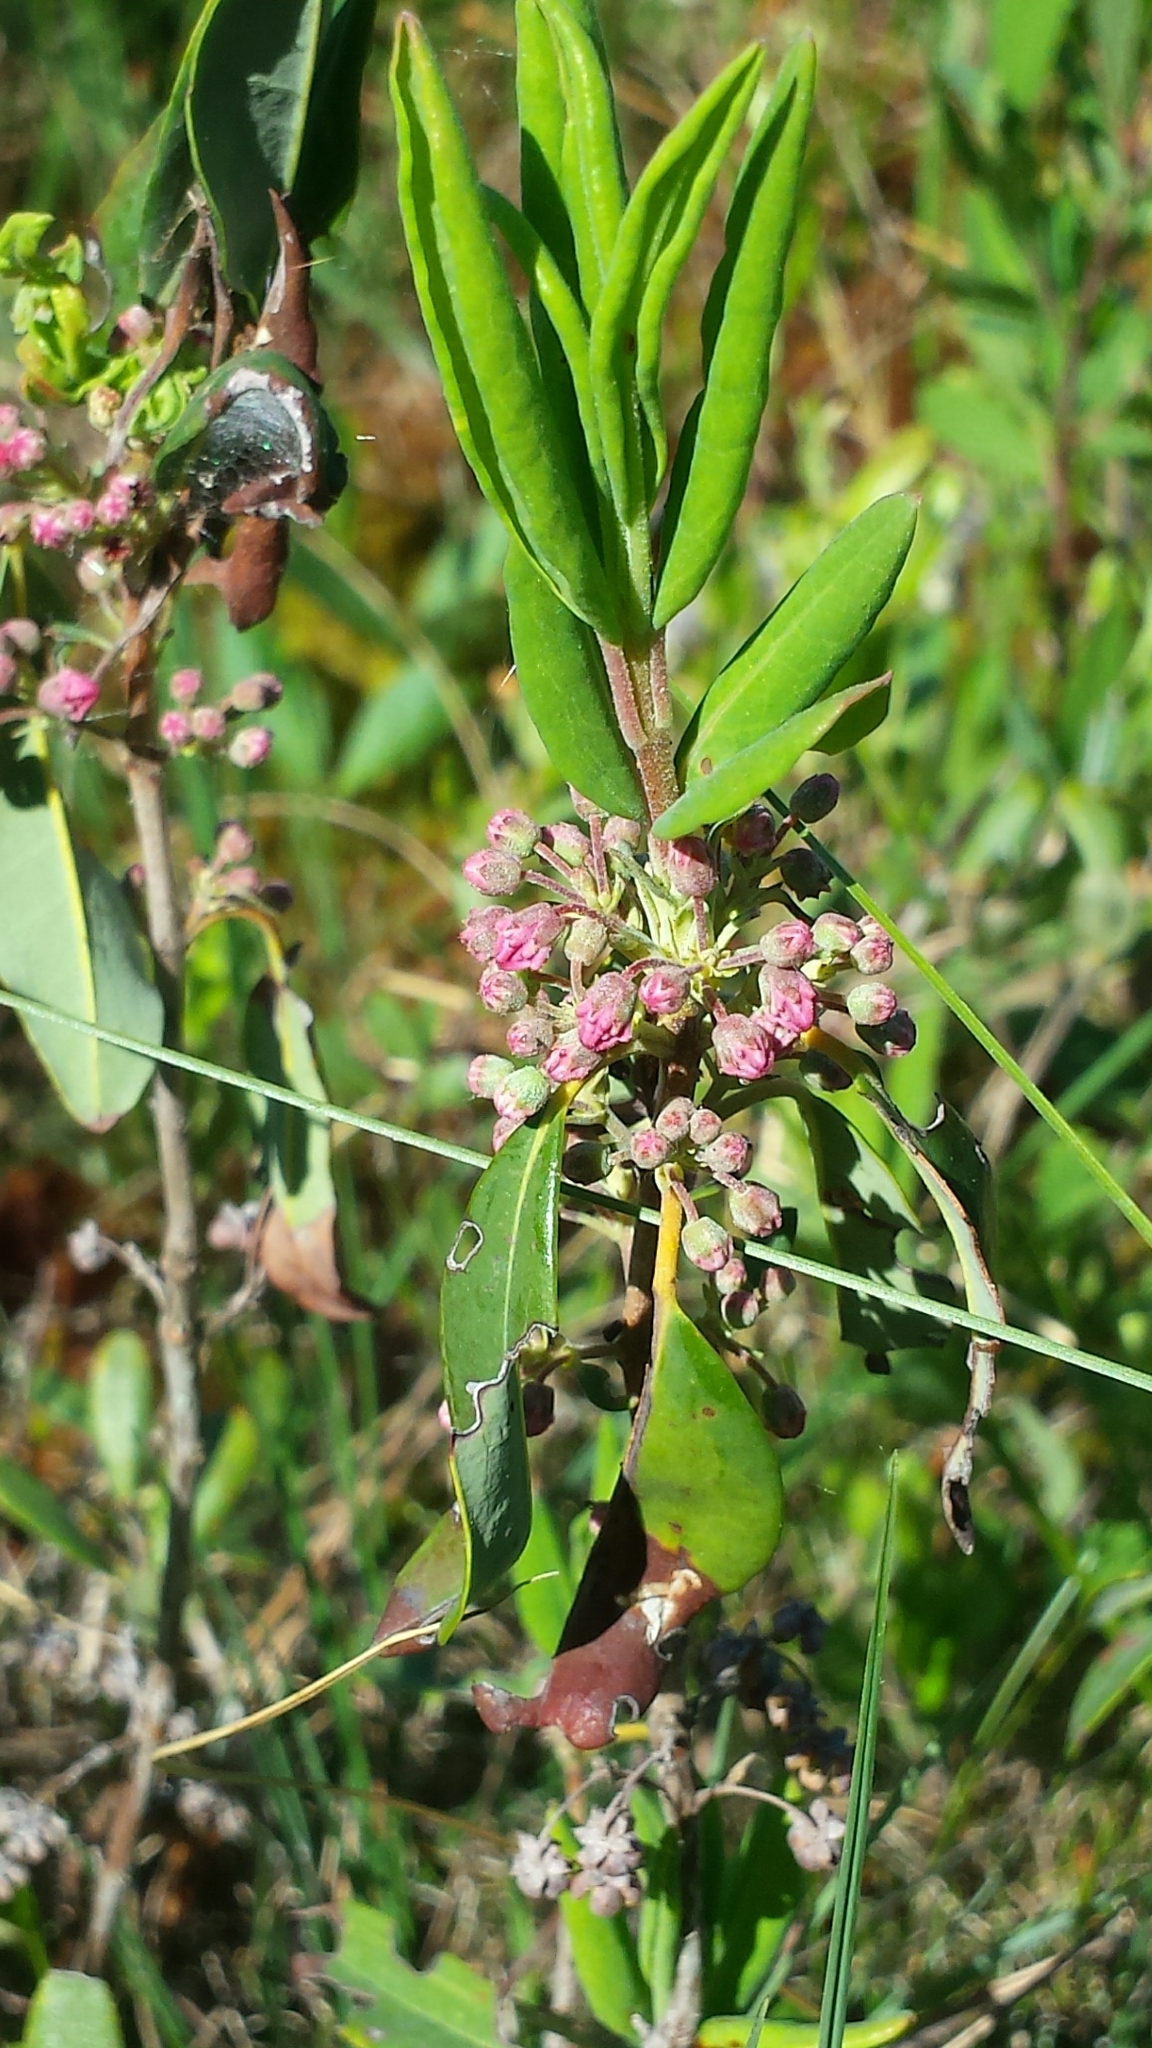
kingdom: Plantae
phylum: Tracheophyta
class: Magnoliopsida
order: Ericales
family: Ericaceae
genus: Kalmia
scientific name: Kalmia angustifolia
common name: Sheep-laurel
